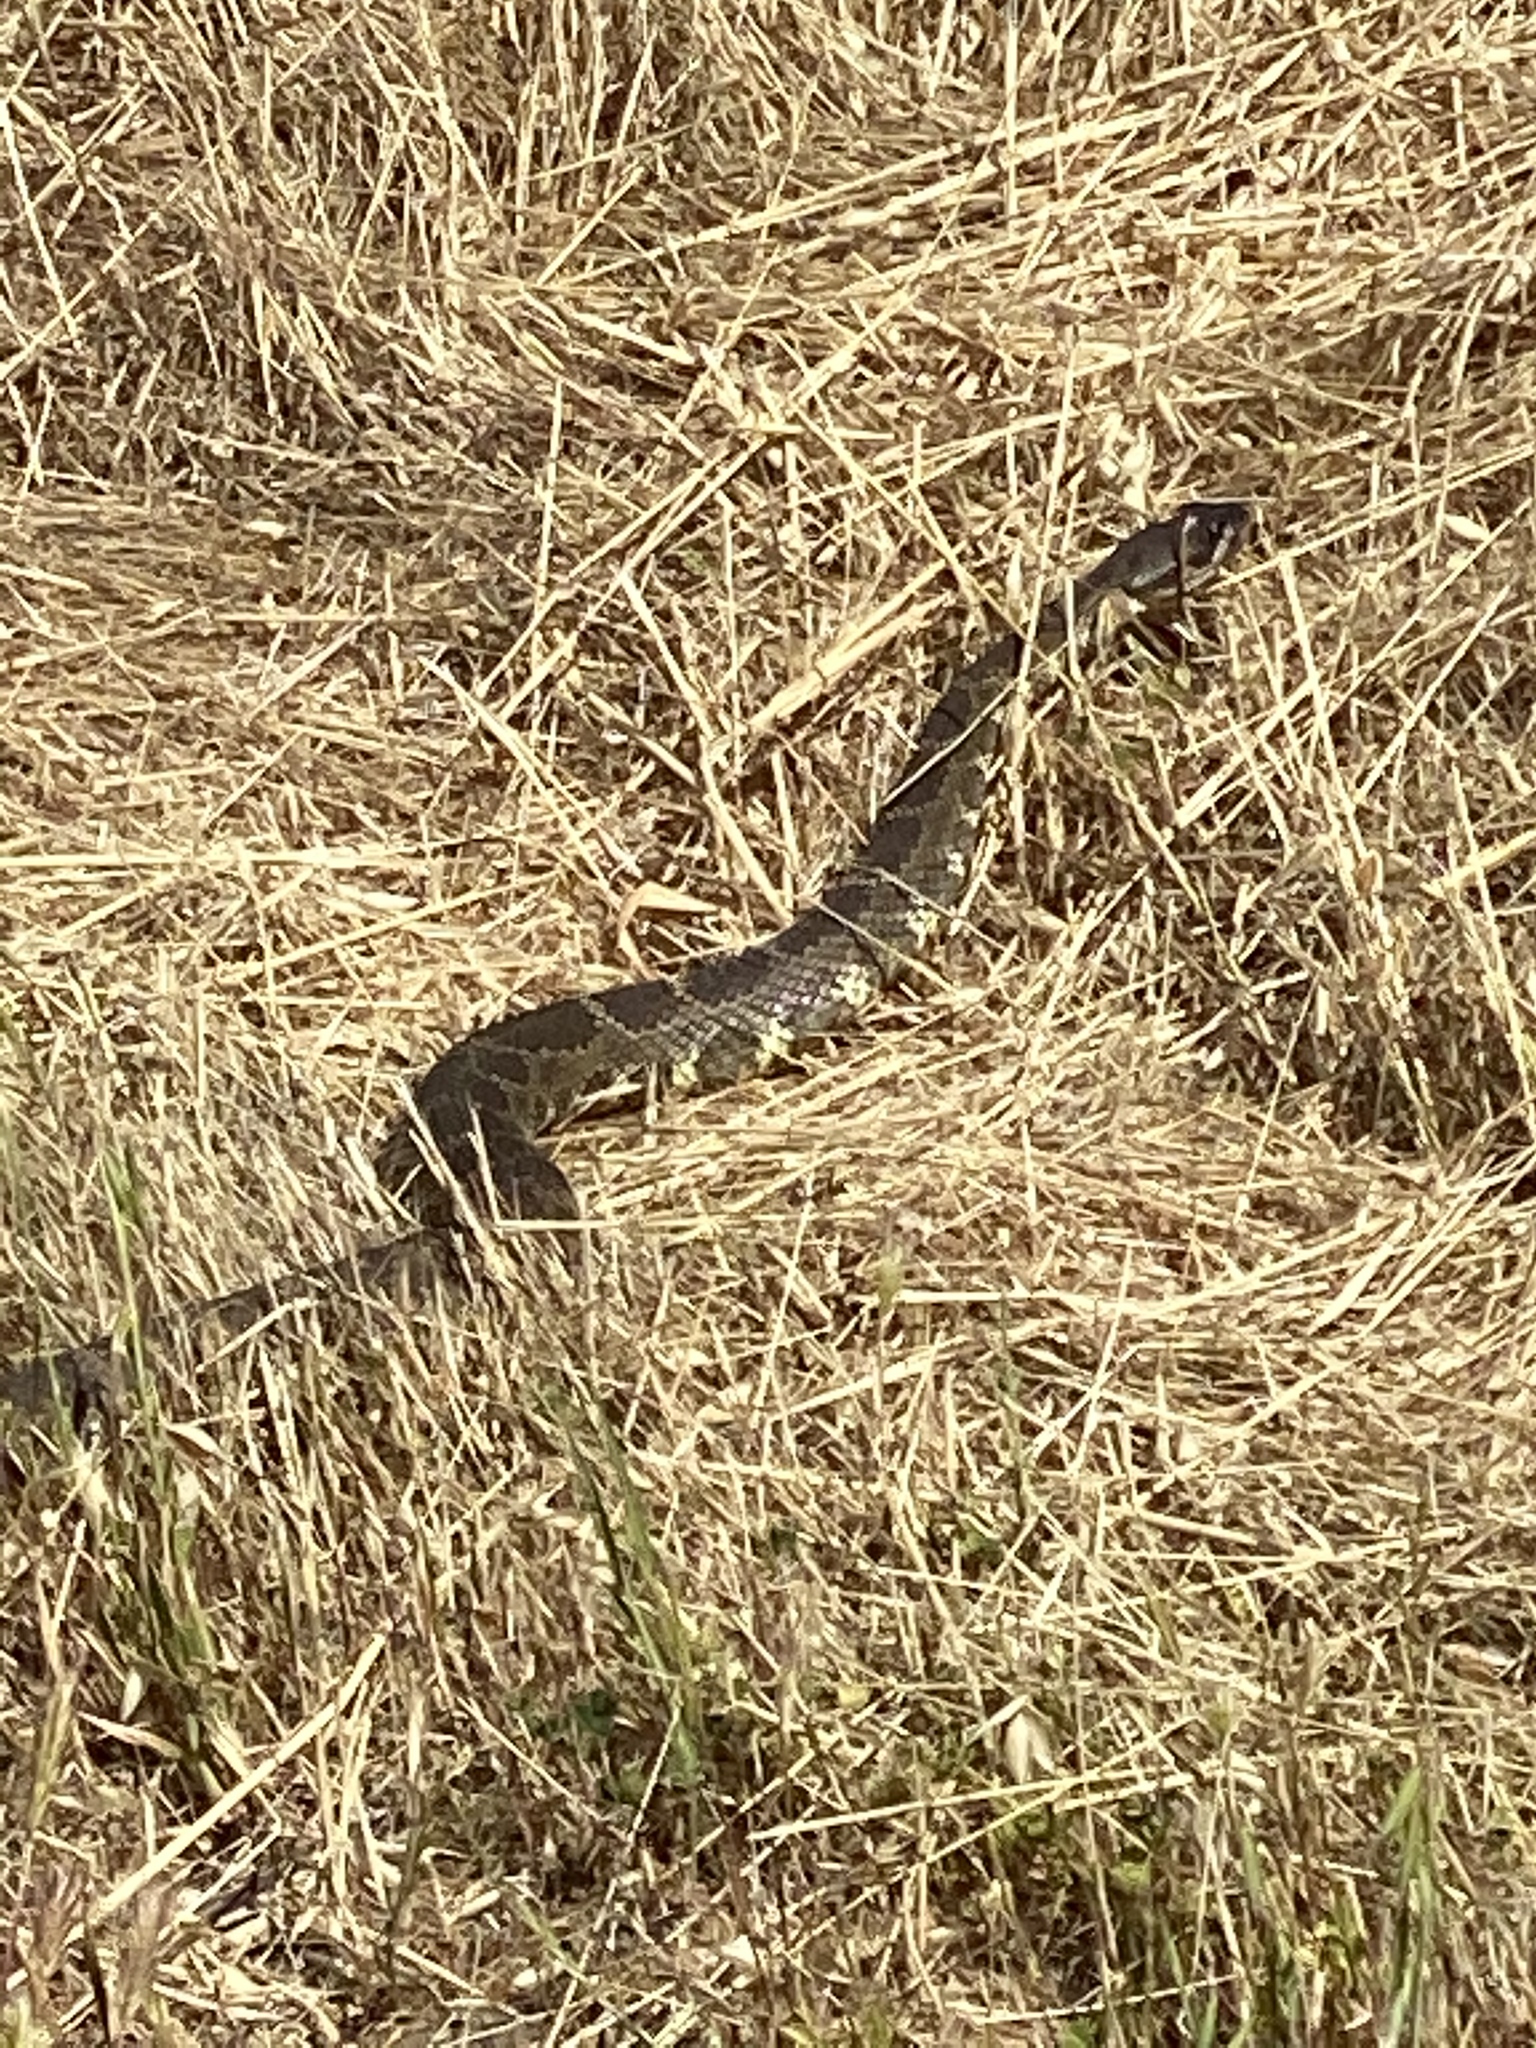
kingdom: Animalia
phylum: Chordata
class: Squamata
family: Viperidae
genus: Crotalus
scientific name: Crotalus oreganus
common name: Abyssus
